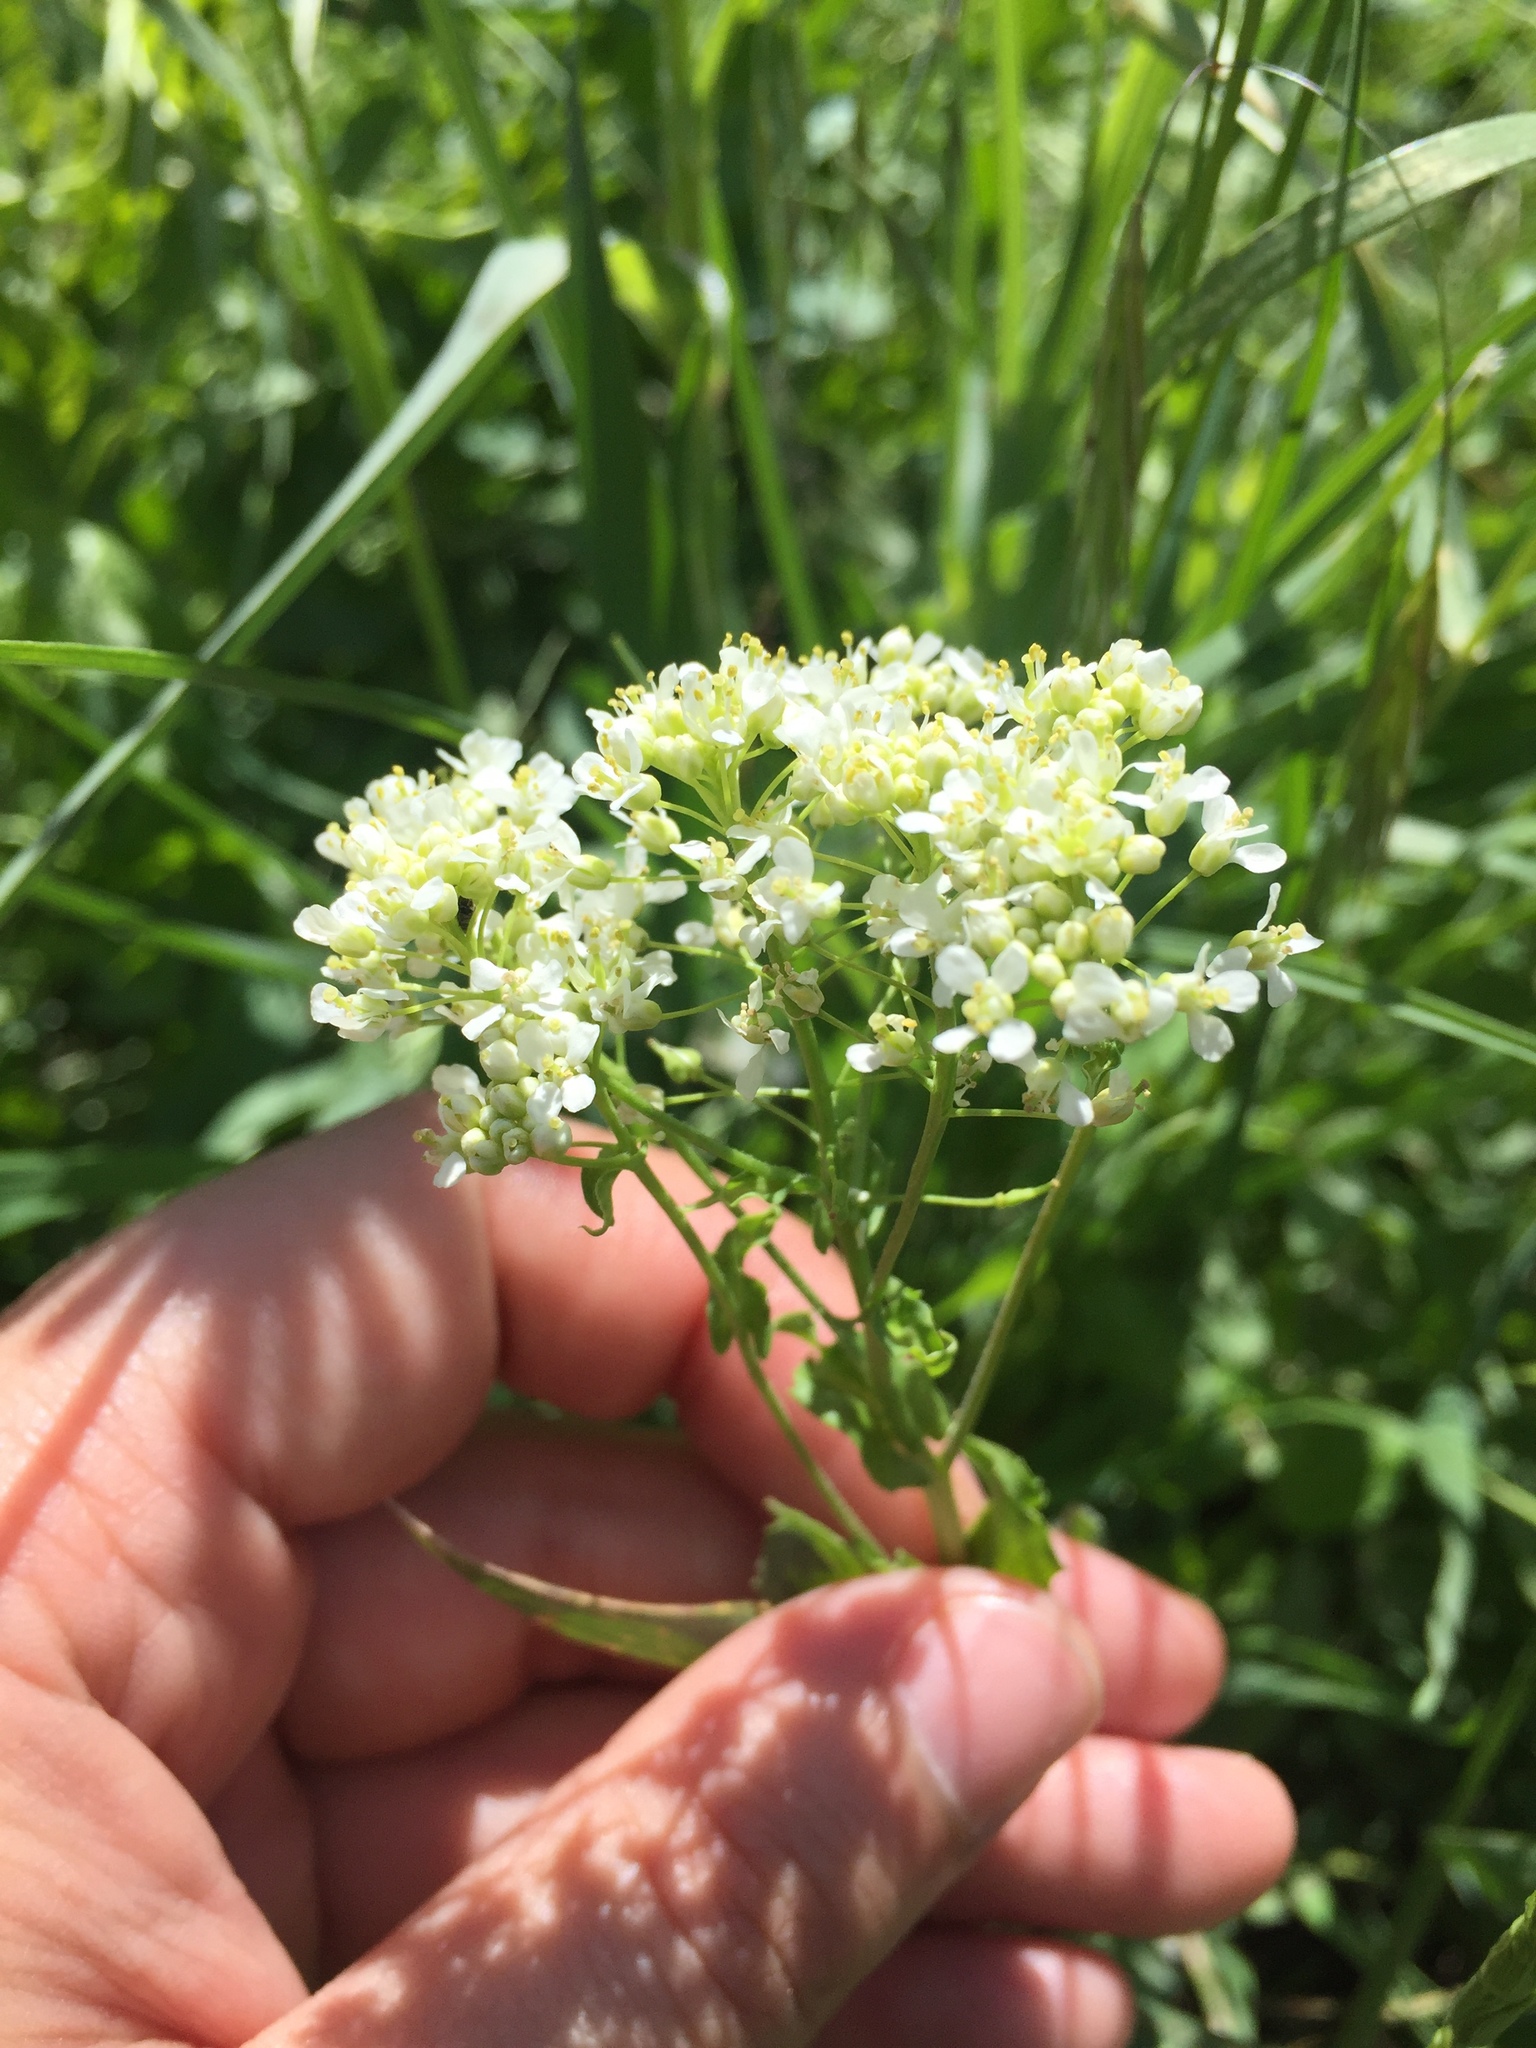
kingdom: Plantae
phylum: Tracheophyta
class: Magnoliopsida
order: Brassicales
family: Brassicaceae
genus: Lepidium
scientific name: Lepidium draba
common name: Hoary cress
